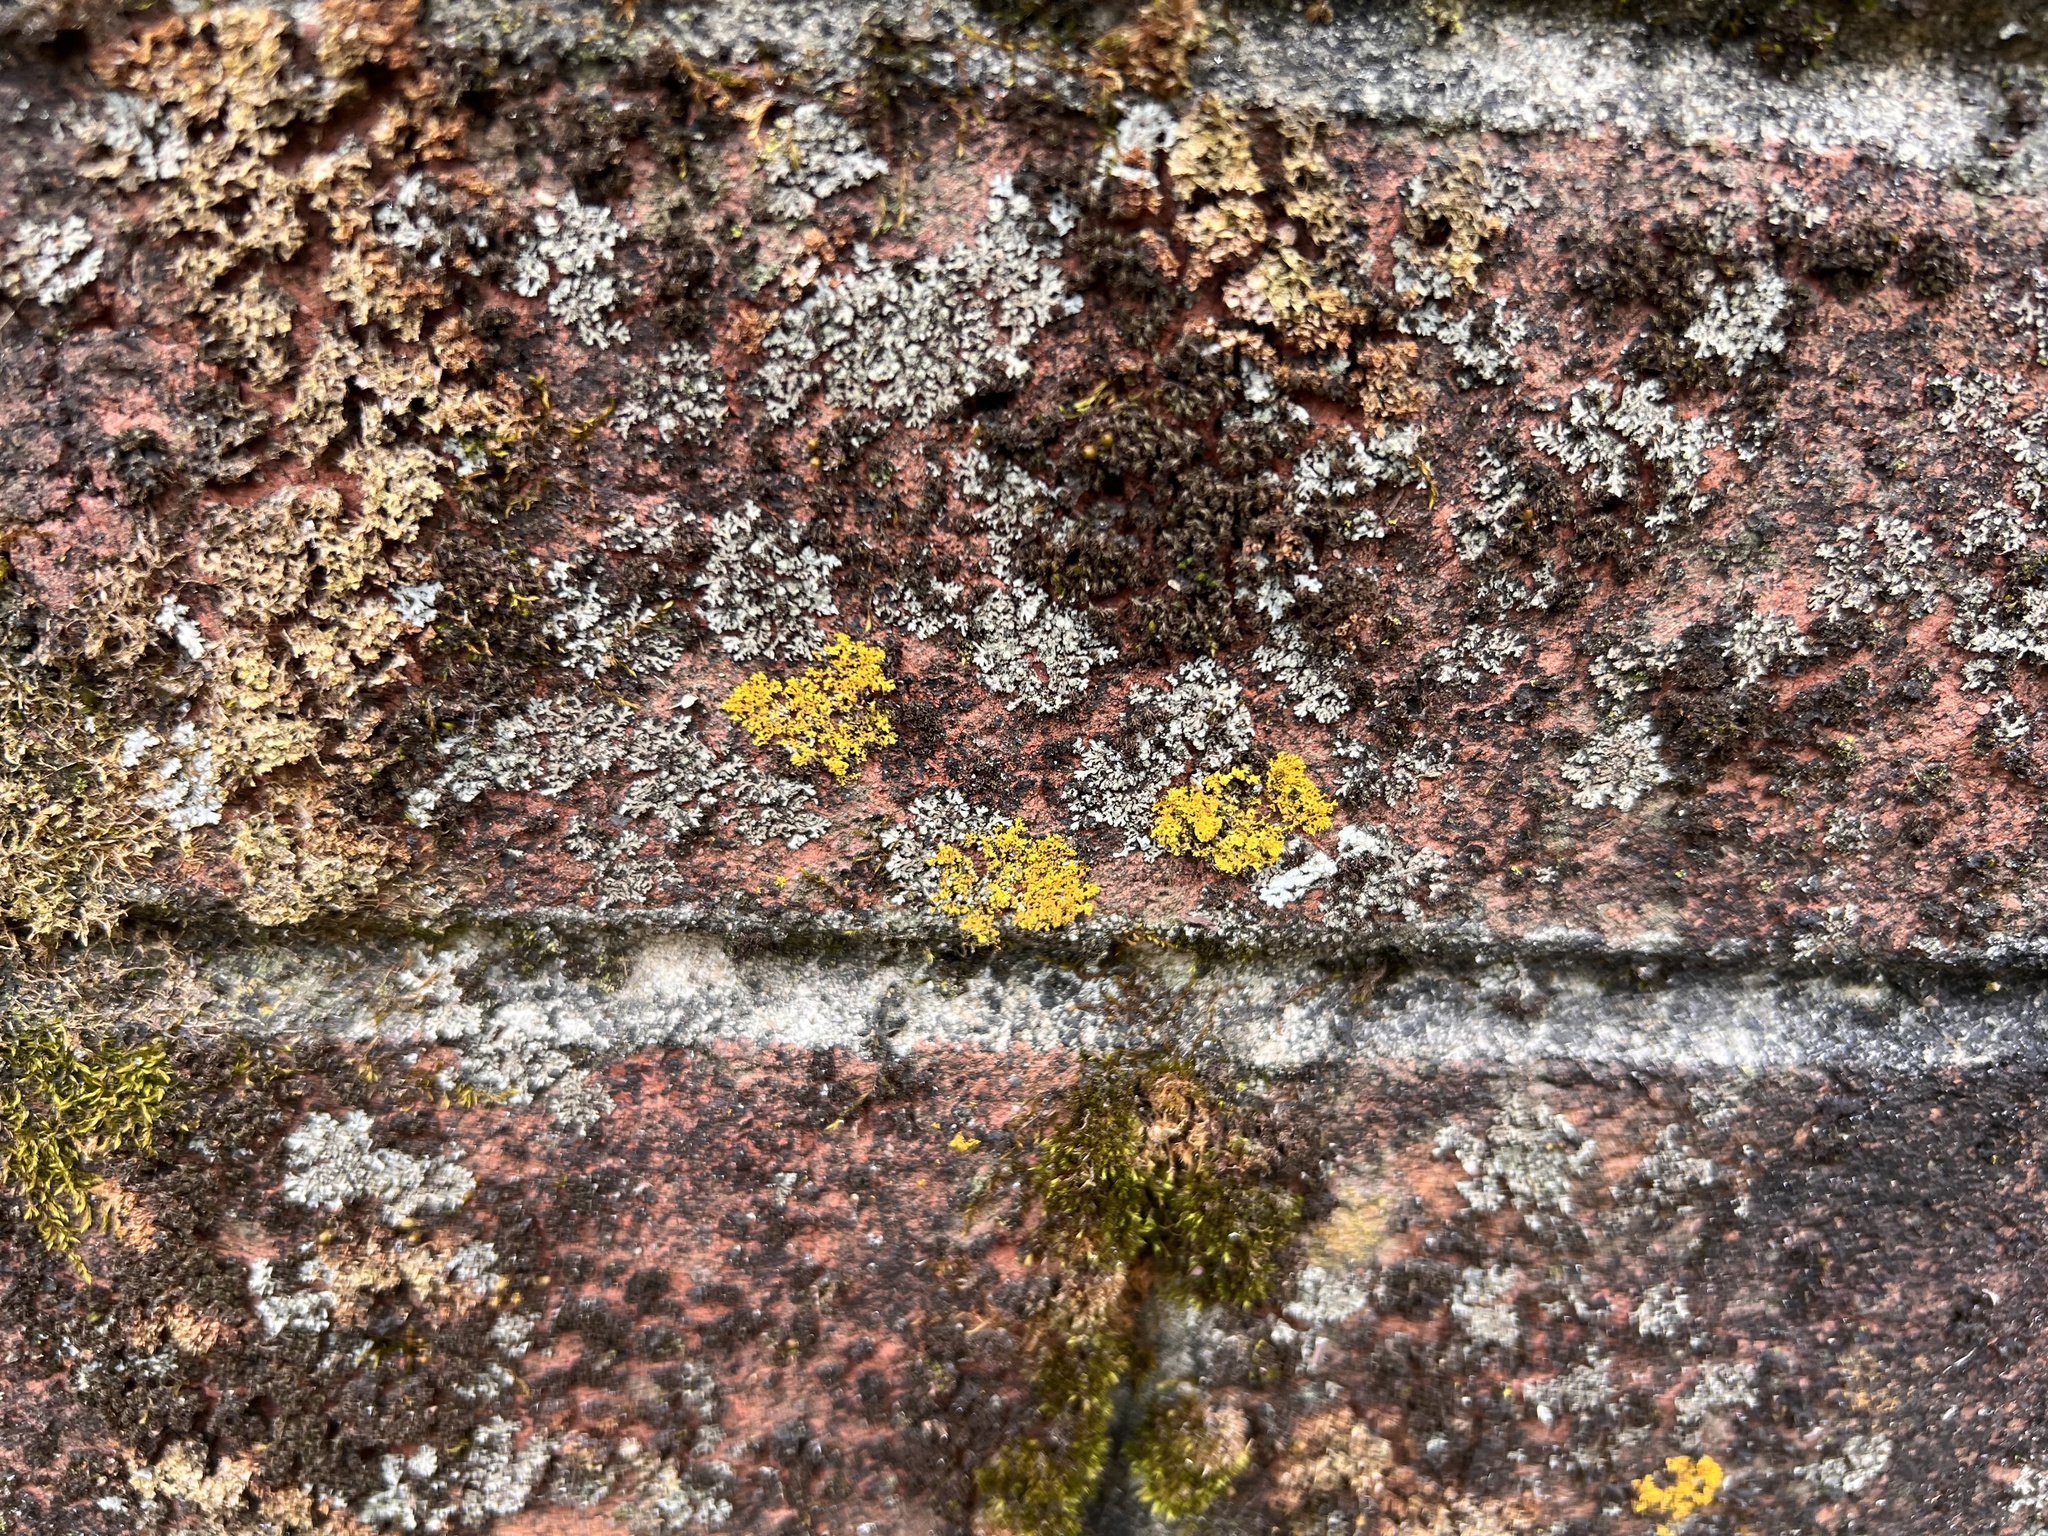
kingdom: Fungi
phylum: Ascomycota
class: Candelariomycetes
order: Candelariales
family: Candelariaceae
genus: Candelaria
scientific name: Candelaria concolor
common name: Candleflame lichen
